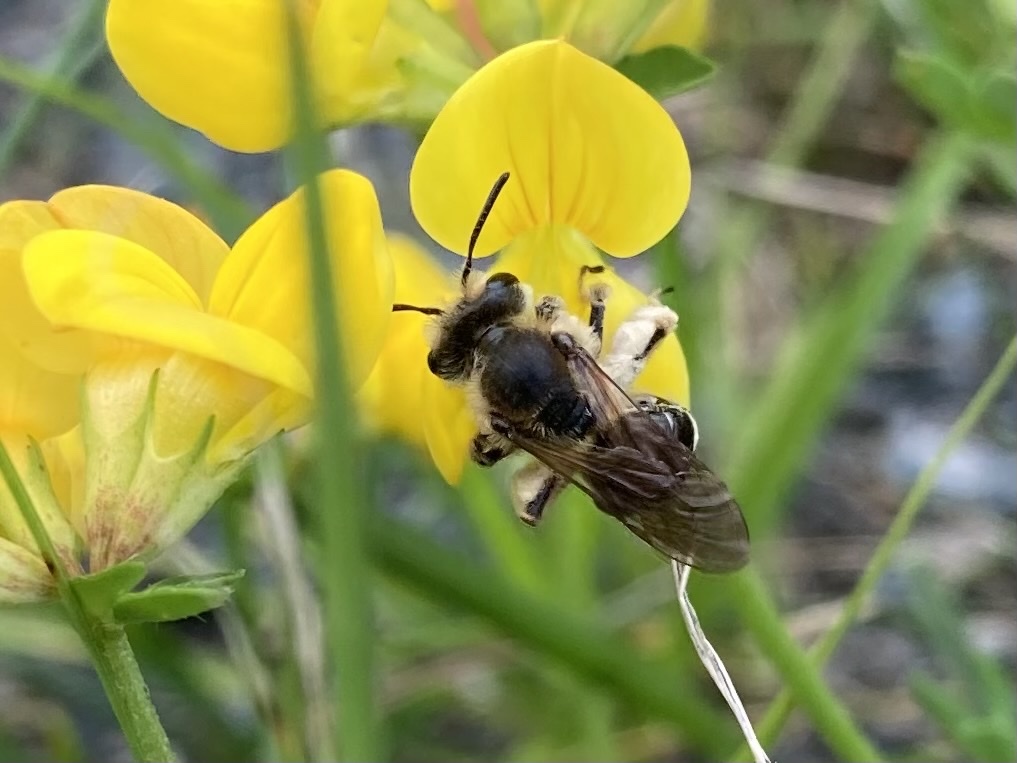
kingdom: Animalia
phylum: Arthropoda
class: Insecta
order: Hymenoptera
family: Andrenidae
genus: Andrena
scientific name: Andrena wilkella
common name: Wilke's mining bee
